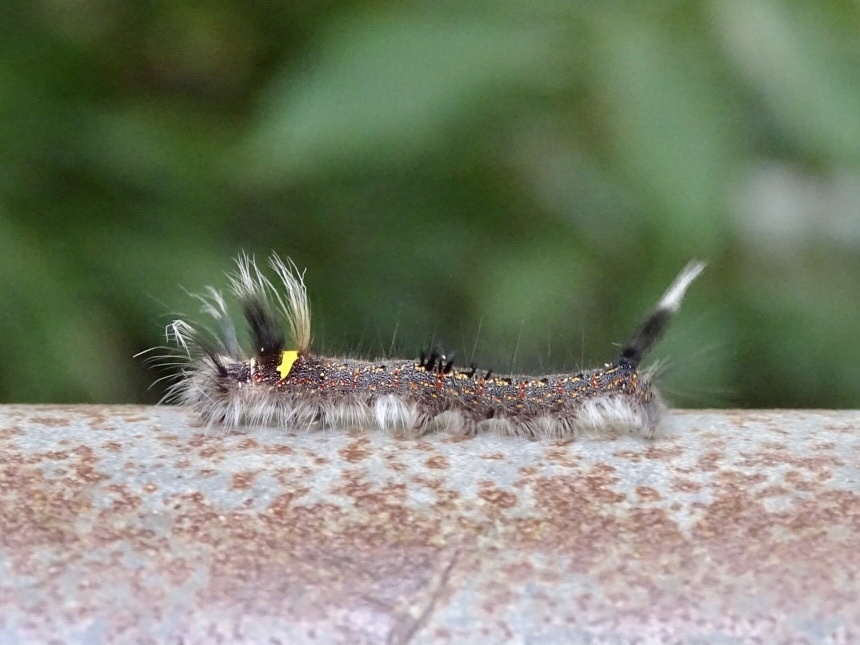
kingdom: Animalia
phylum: Arthropoda
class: Insecta
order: Lepidoptera
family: Lasiocampidae
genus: Euthrix
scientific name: Euthrix isocyma
